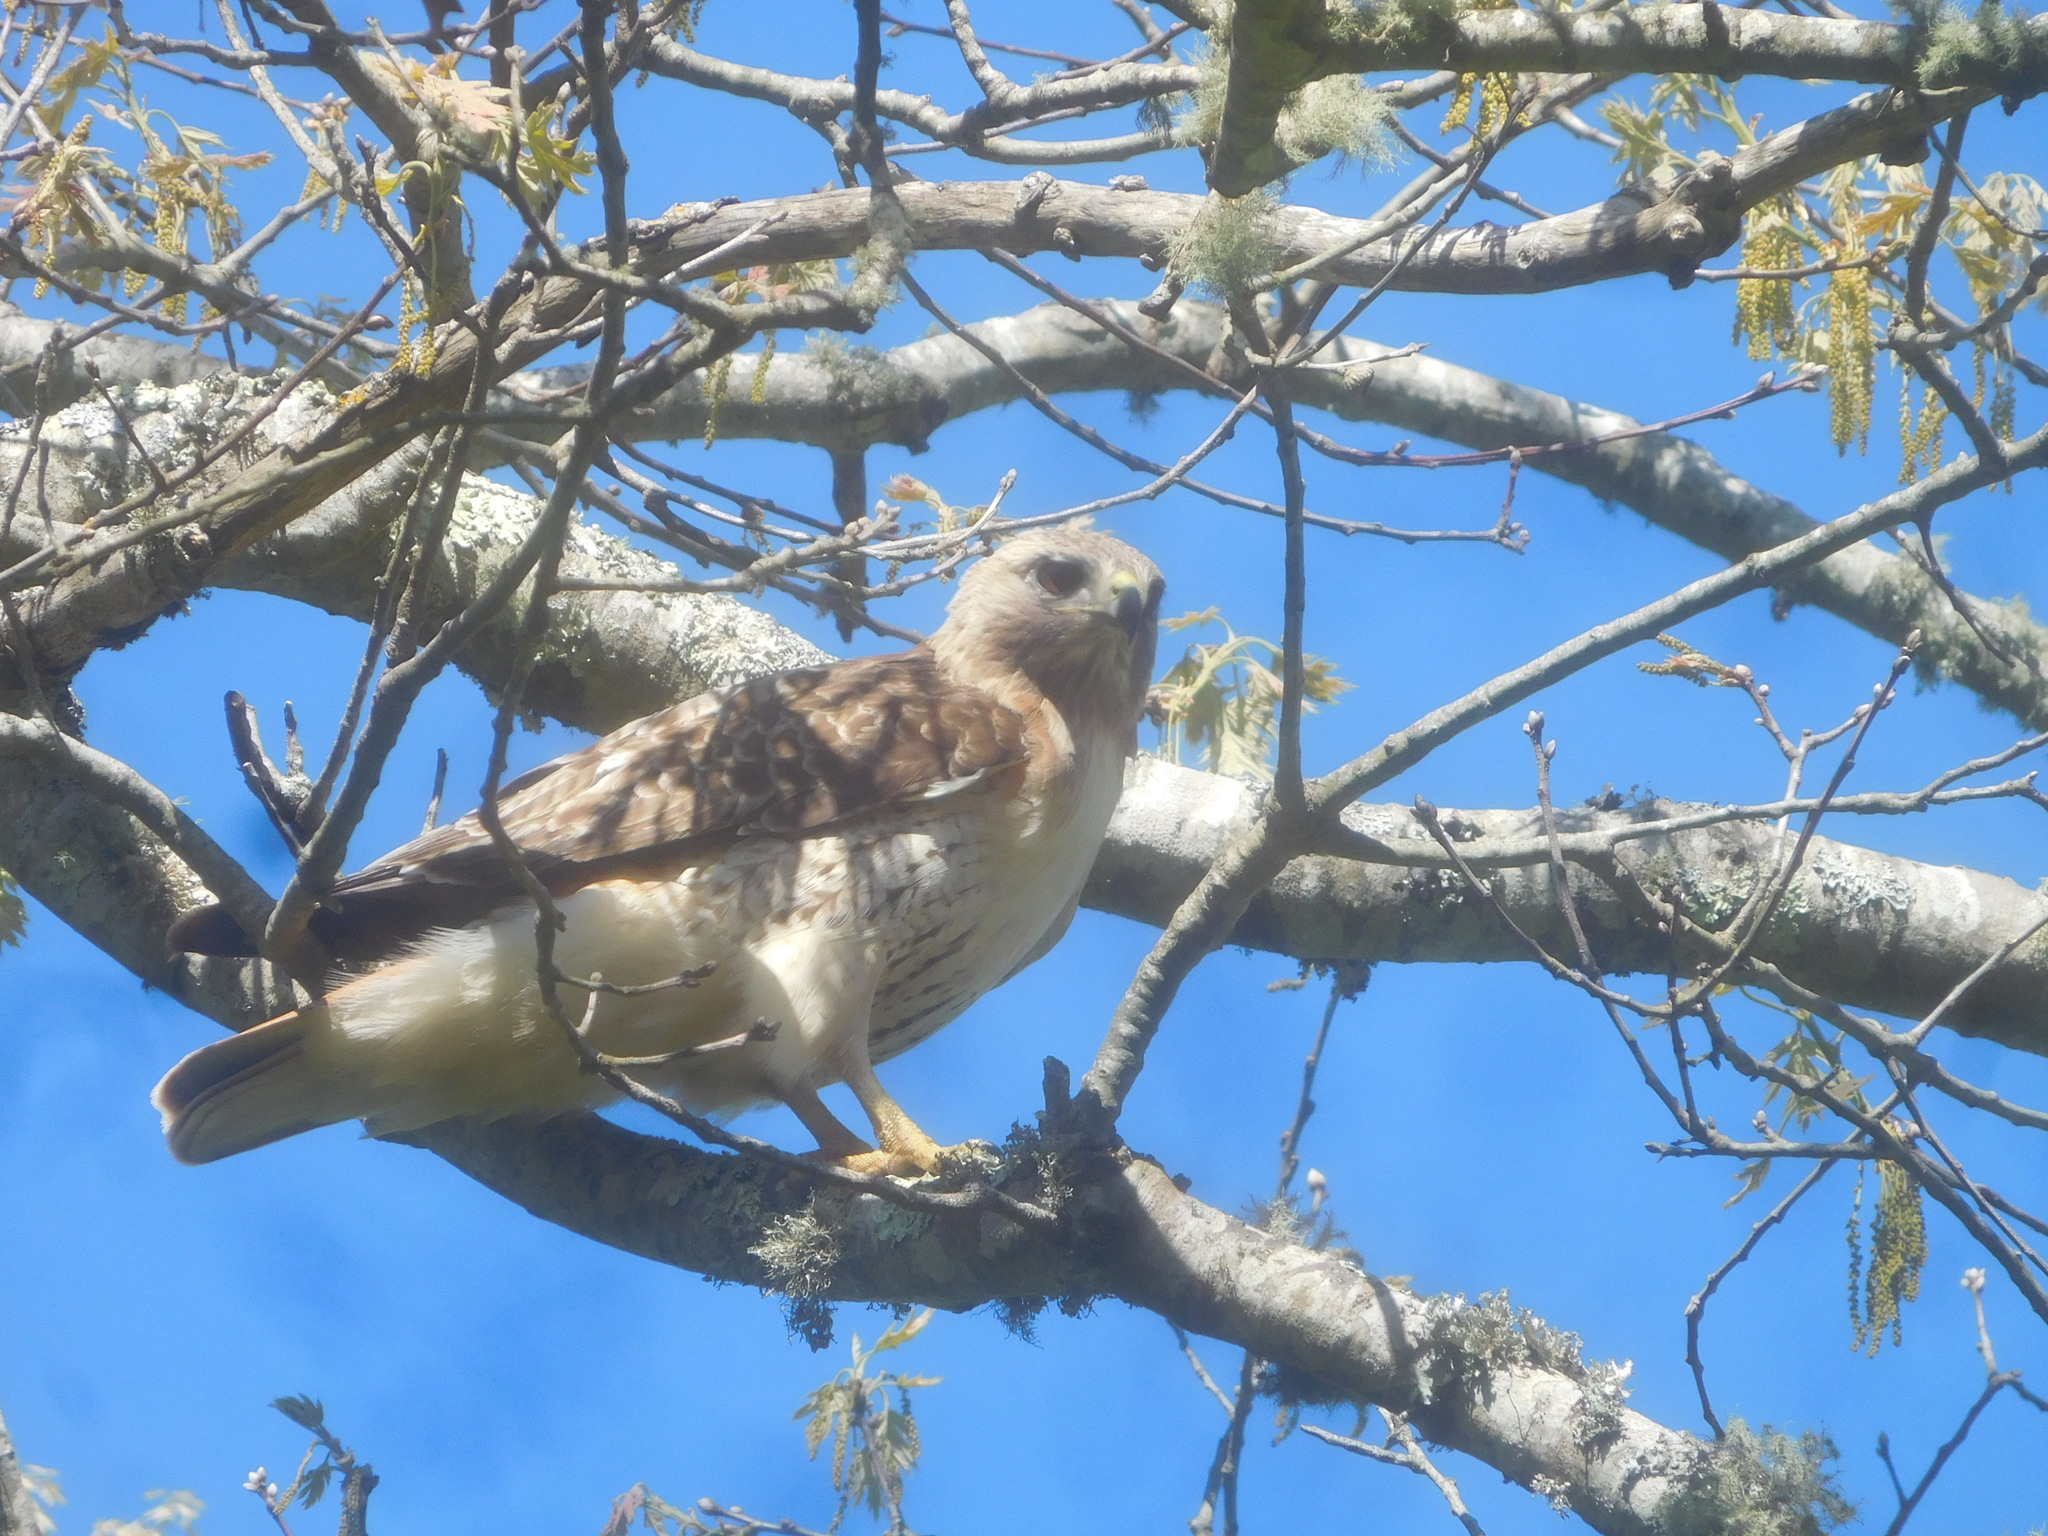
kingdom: Animalia
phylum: Chordata
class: Aves
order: Accipitriformes
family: Accipitridae
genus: Buteo
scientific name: Buteo jamaicensis
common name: Red-tailed hawk
